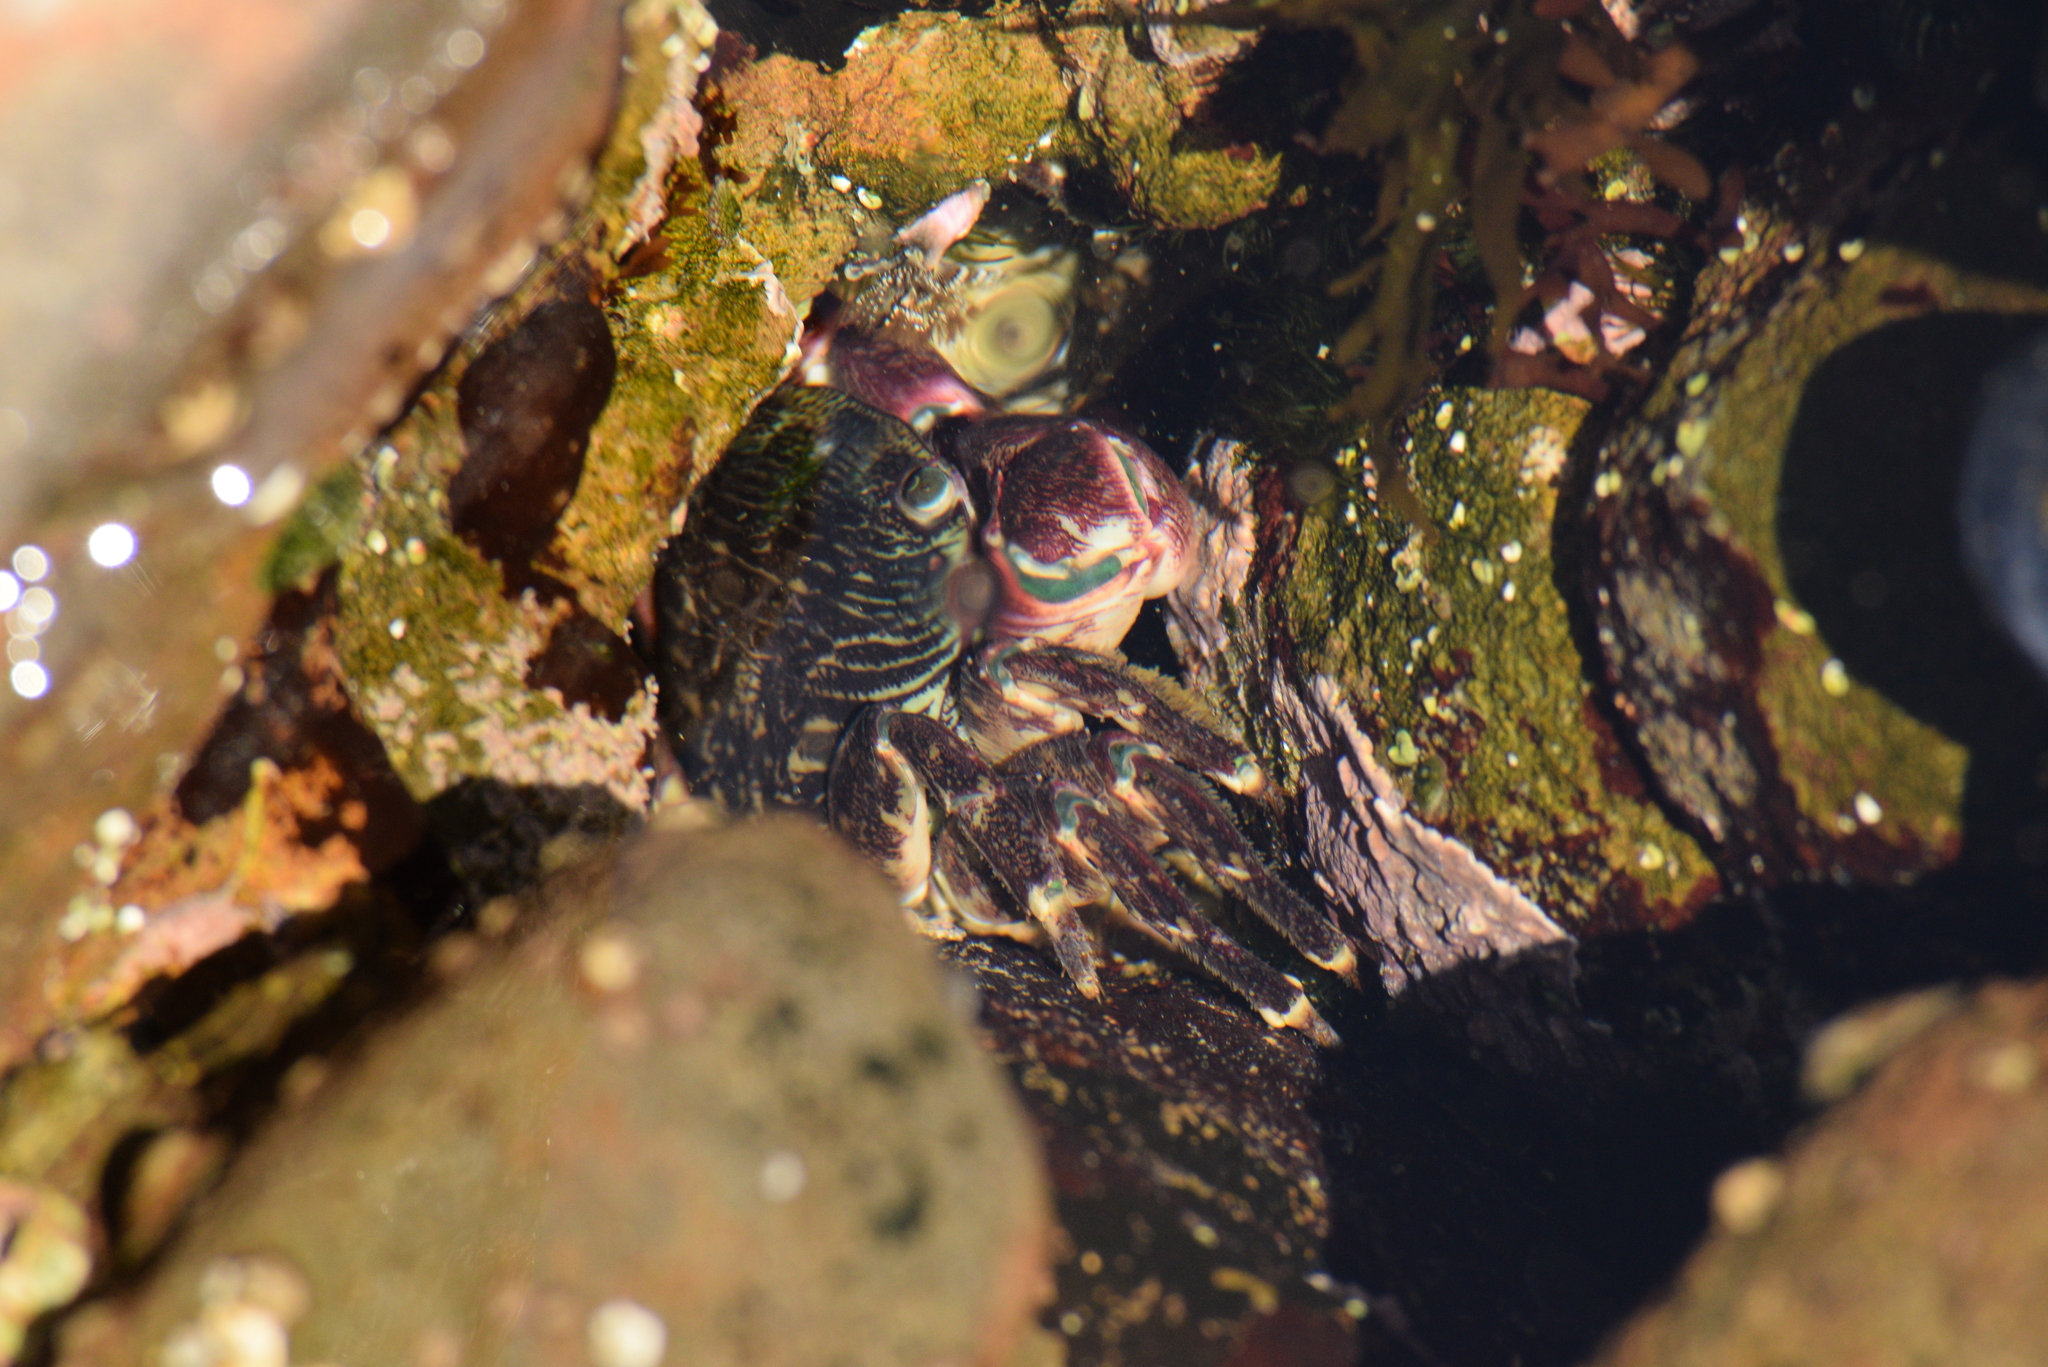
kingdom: Animalia
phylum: Arthropoda
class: Malacostraca
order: Decapoda
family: Grapsidae
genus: Pachygrapsus
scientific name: Pachygrapsus crassipes
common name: Striped shore crab
